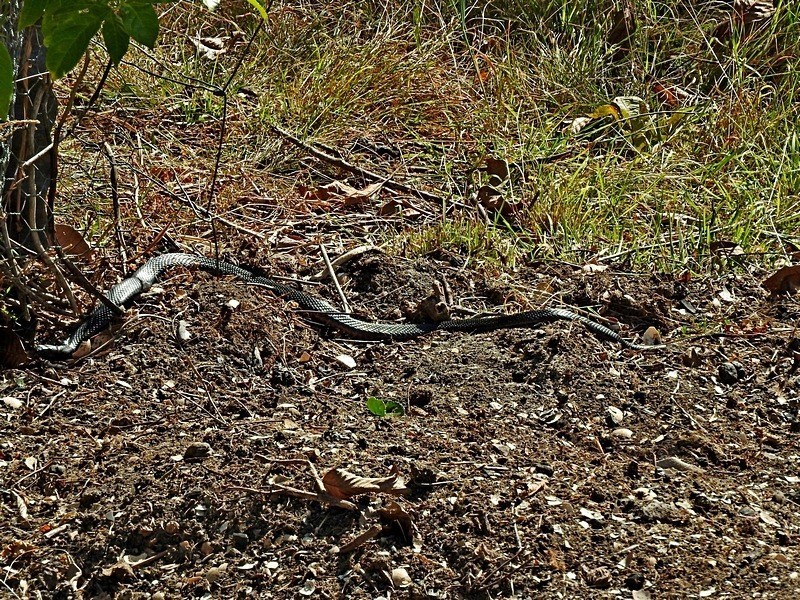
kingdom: Animalia
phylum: Chordata
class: Squamata
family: Elapidae
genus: Pseudechis
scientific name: Pseudechis porphyriacus
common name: Australian black snake
